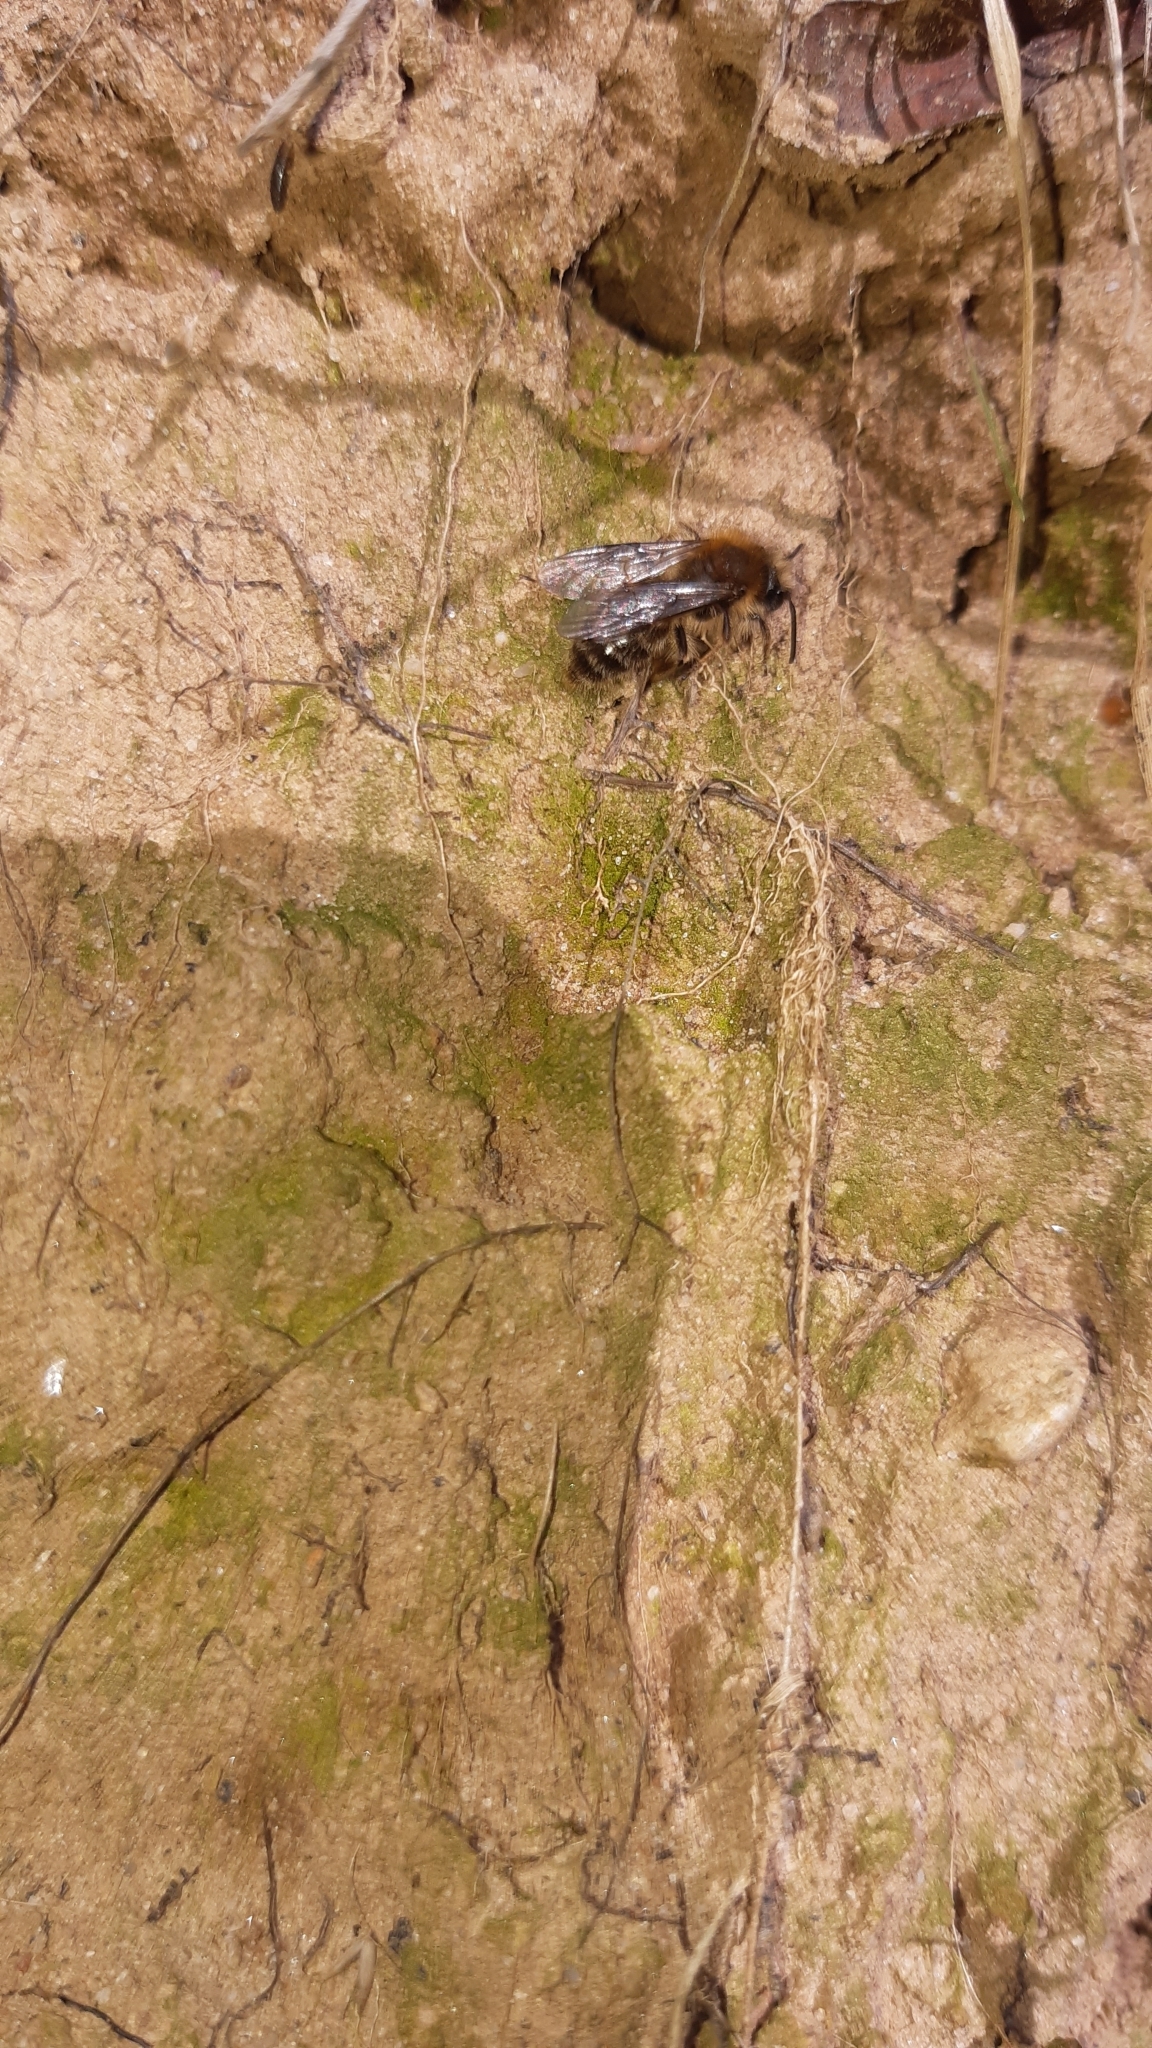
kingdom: Animalia
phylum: Arthropoda
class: Insecta
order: Hymenoptera
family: Andrenidae
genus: Andrena
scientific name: Andrena clarkella
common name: Clarke's mining bee
